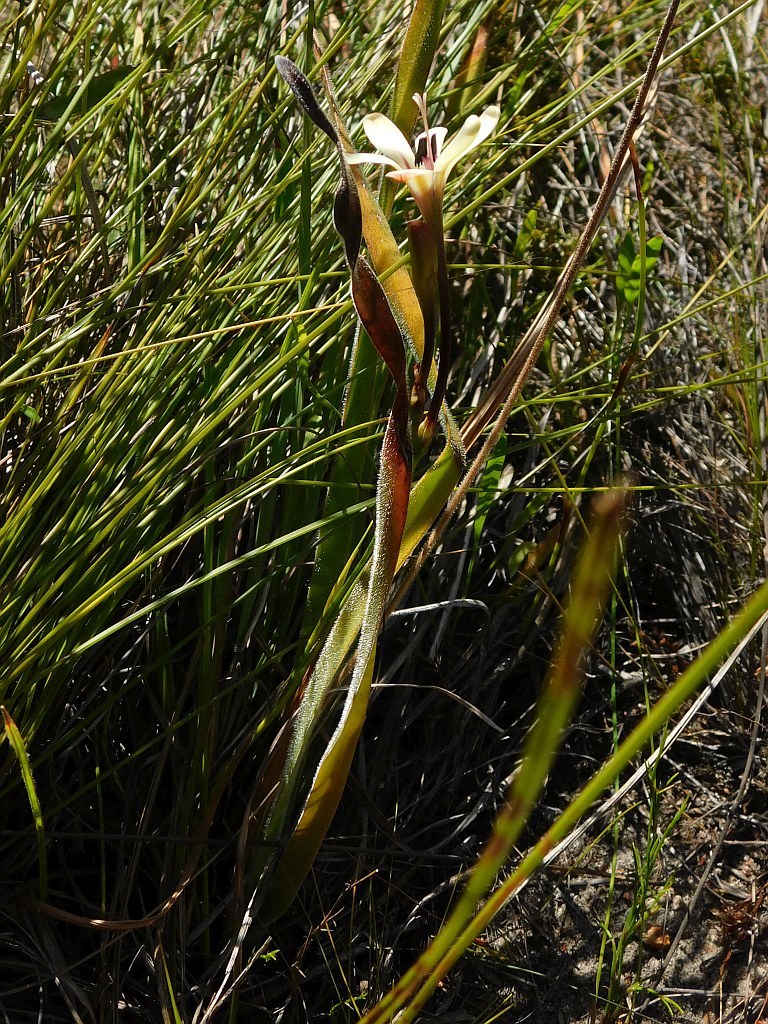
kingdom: Plantae
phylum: Tracheophyta
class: Liliopsida
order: Asparagales
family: Iridaceae
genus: Tritonia
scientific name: Tritonia cooperi
